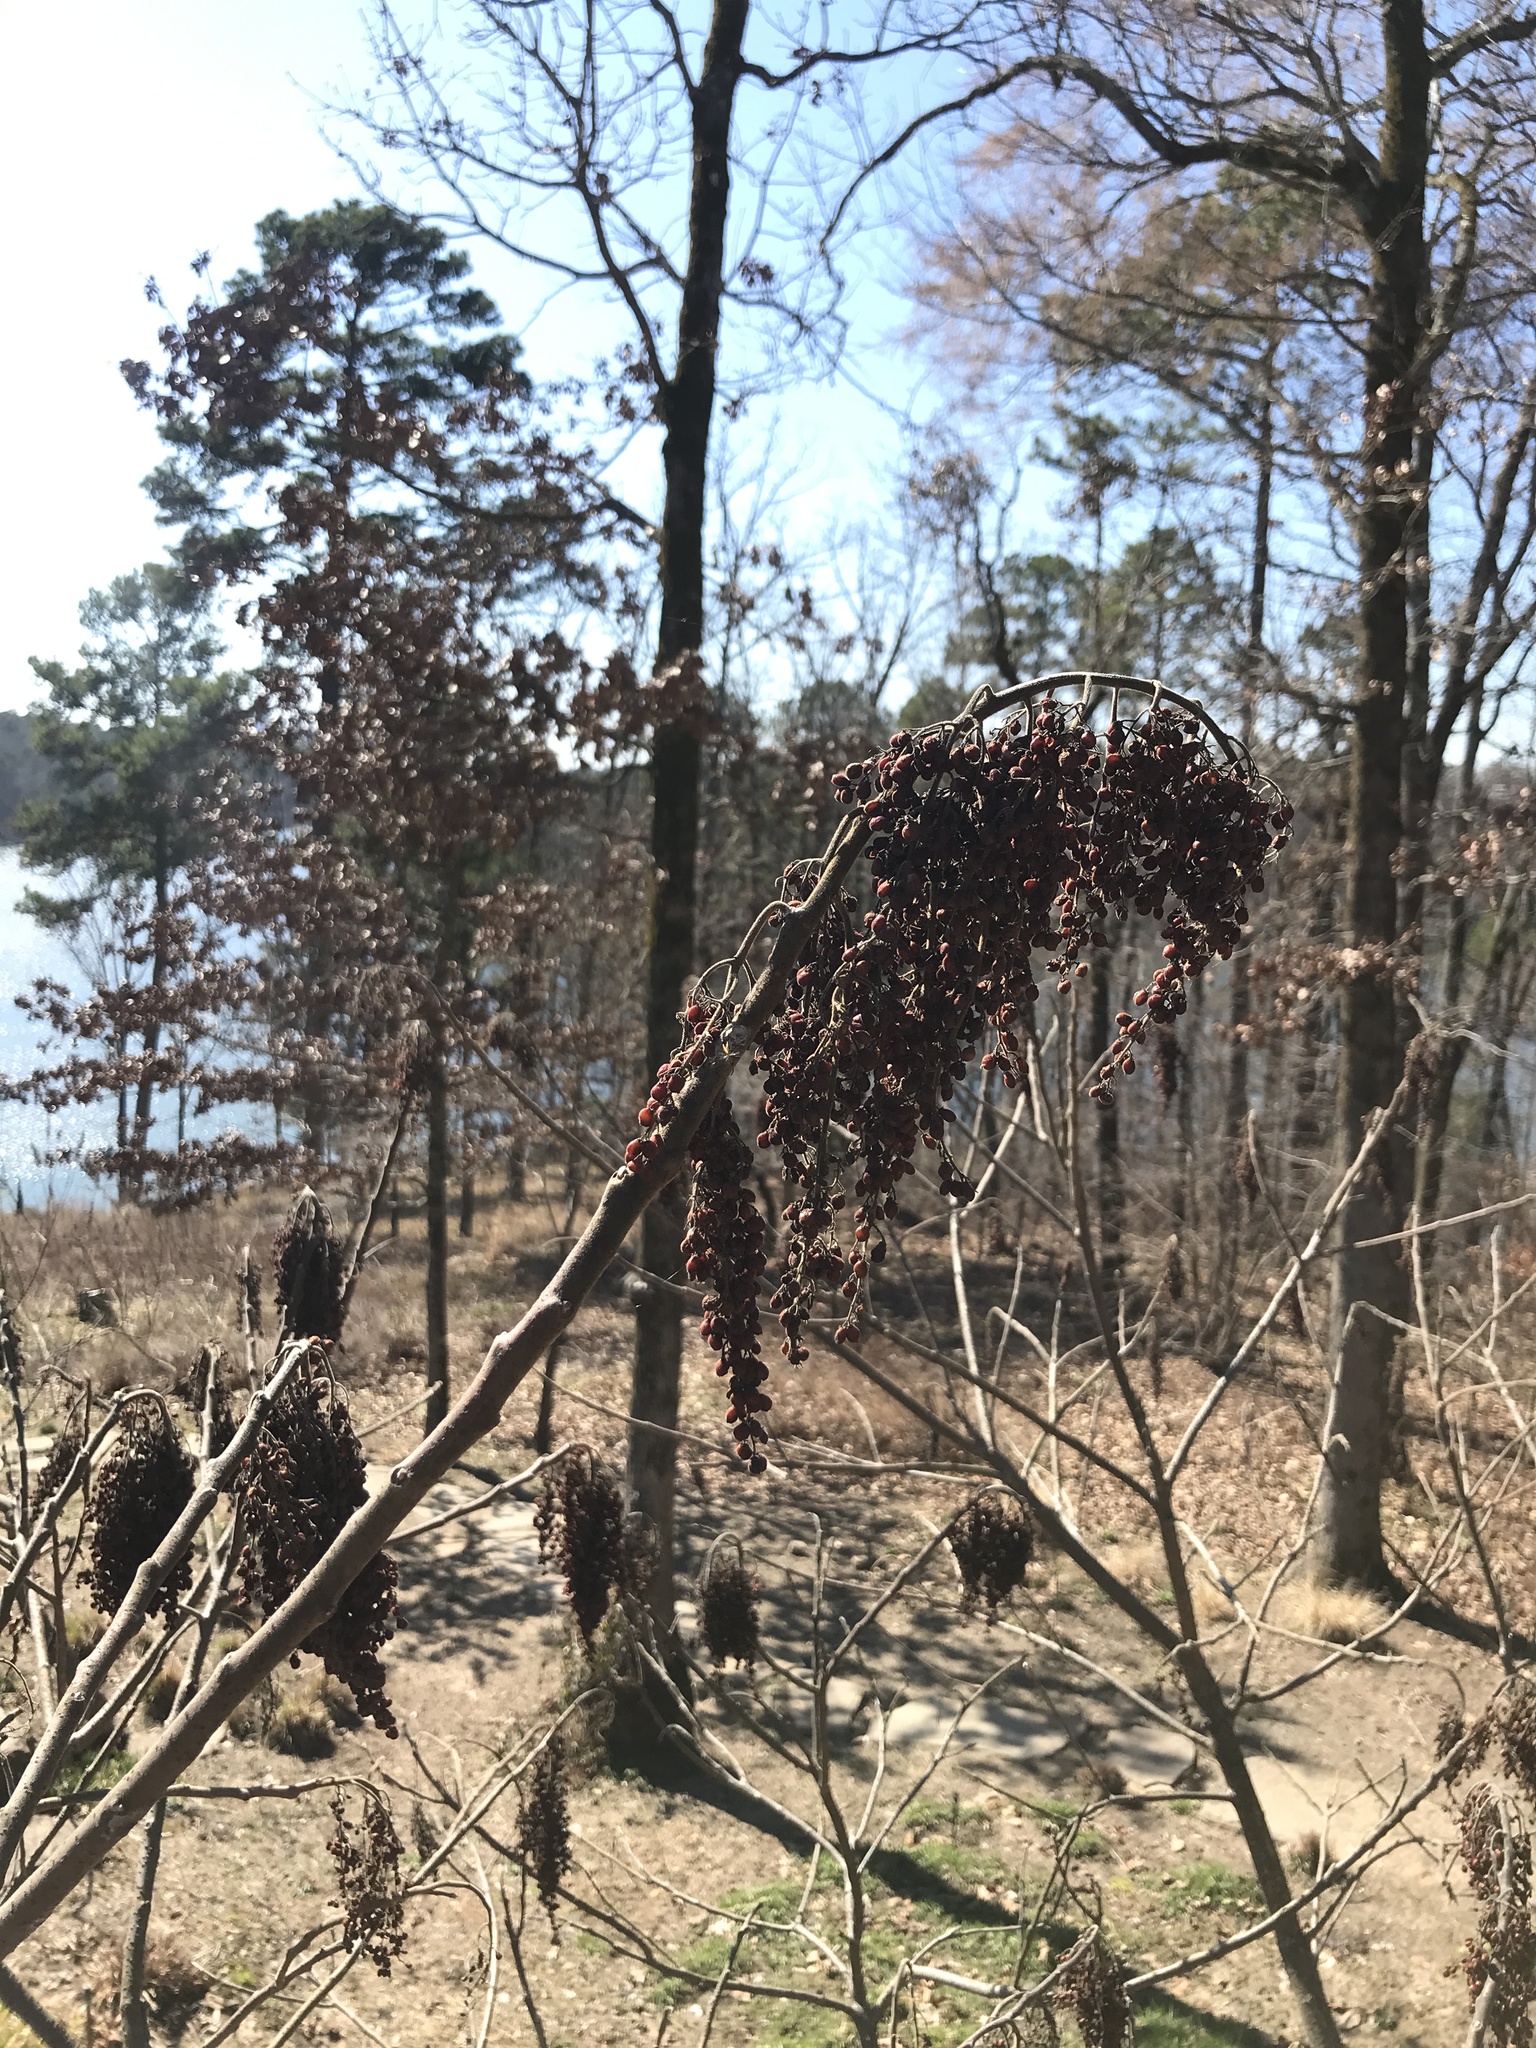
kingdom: Plantae
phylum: Tracheophyta
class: Magnoliopsida
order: Sapindales
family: Anacardiaceae
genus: Rhus
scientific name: Rhus copallina
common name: Shining sumac
